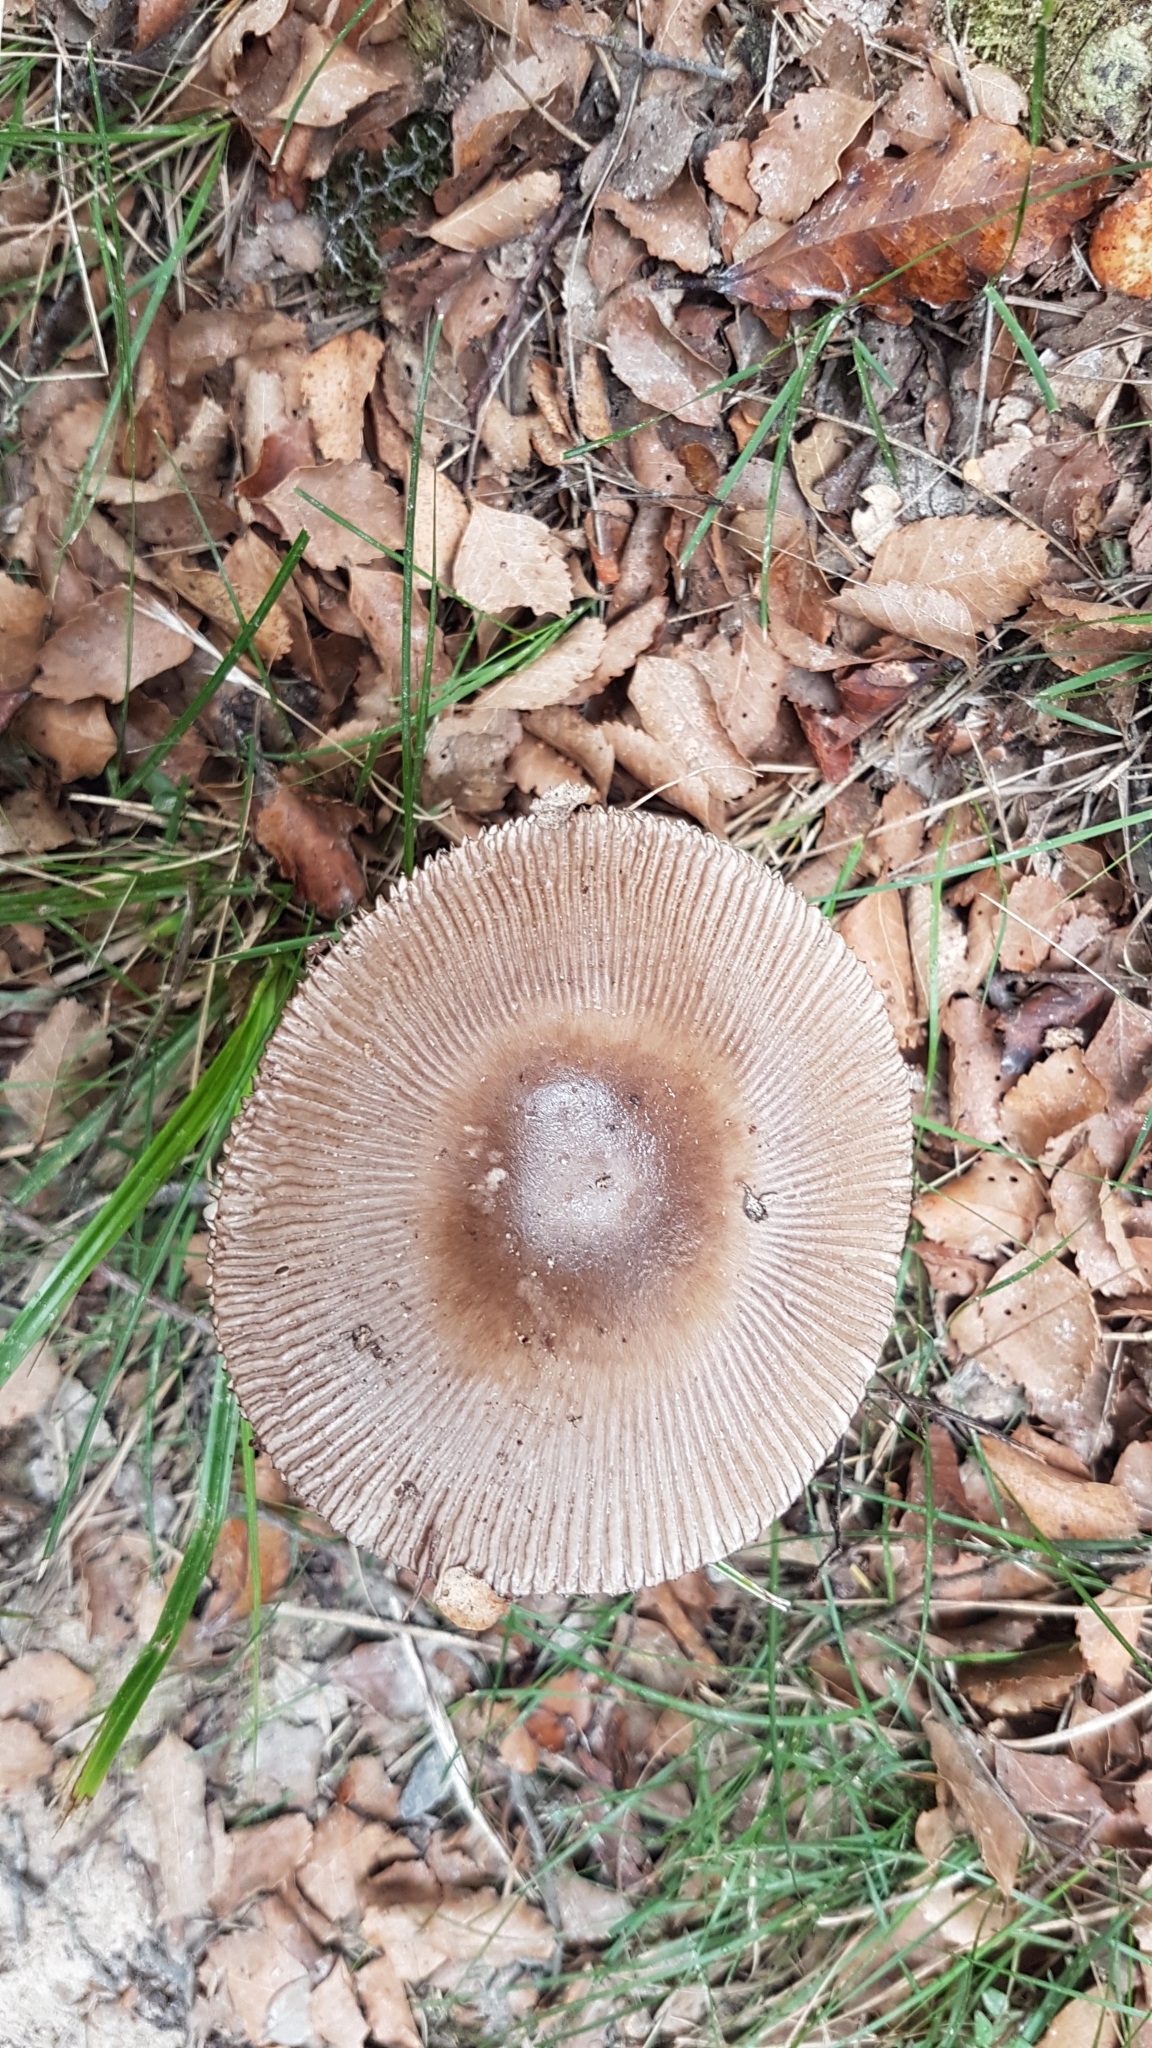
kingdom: Fungi
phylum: Basidiomycota
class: Agaricomycetes
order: Agaricales
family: Amanitaceae
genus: Amanita
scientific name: Amanita pekeoides
